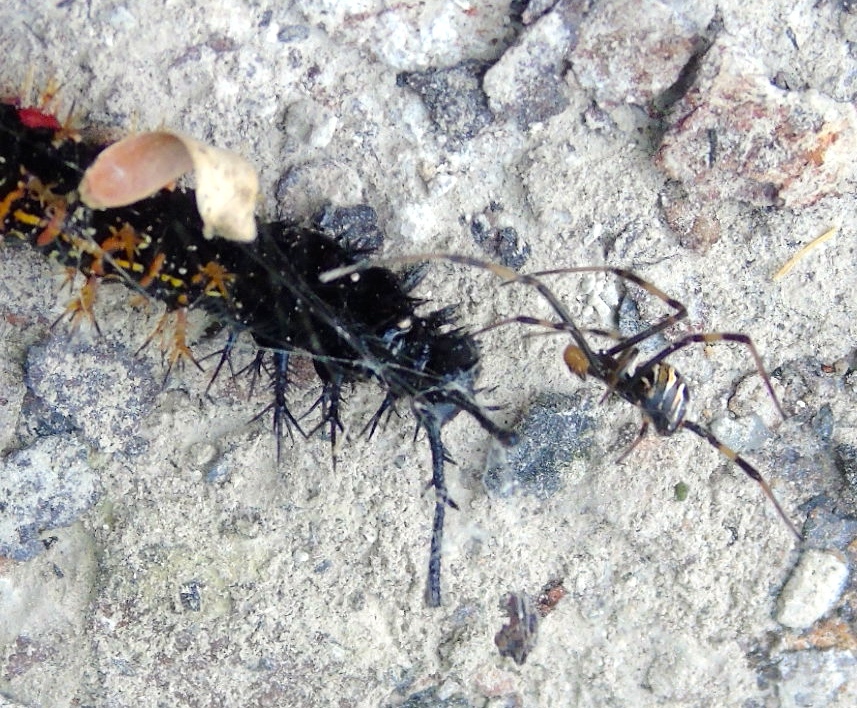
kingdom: Animalia
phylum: Arthropoda
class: Arachnida
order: Araneae
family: Theridiidae
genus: Latrodectus
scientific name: Latrodectus mactans
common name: Cobweb spiders
